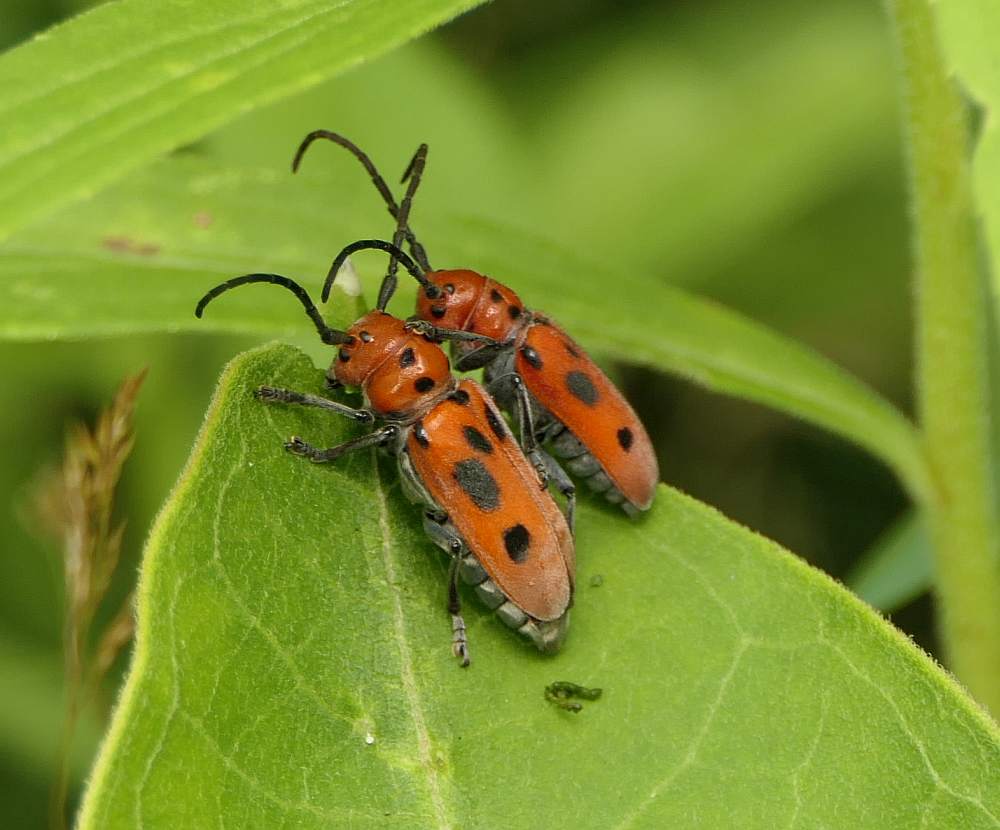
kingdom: Animalia
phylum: Arthropoda
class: Insecta
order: Coleoptera
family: Cerambycidae
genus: Tetraopes
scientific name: Tetraopes tetrophthalmus
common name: Red milkweed beetle
